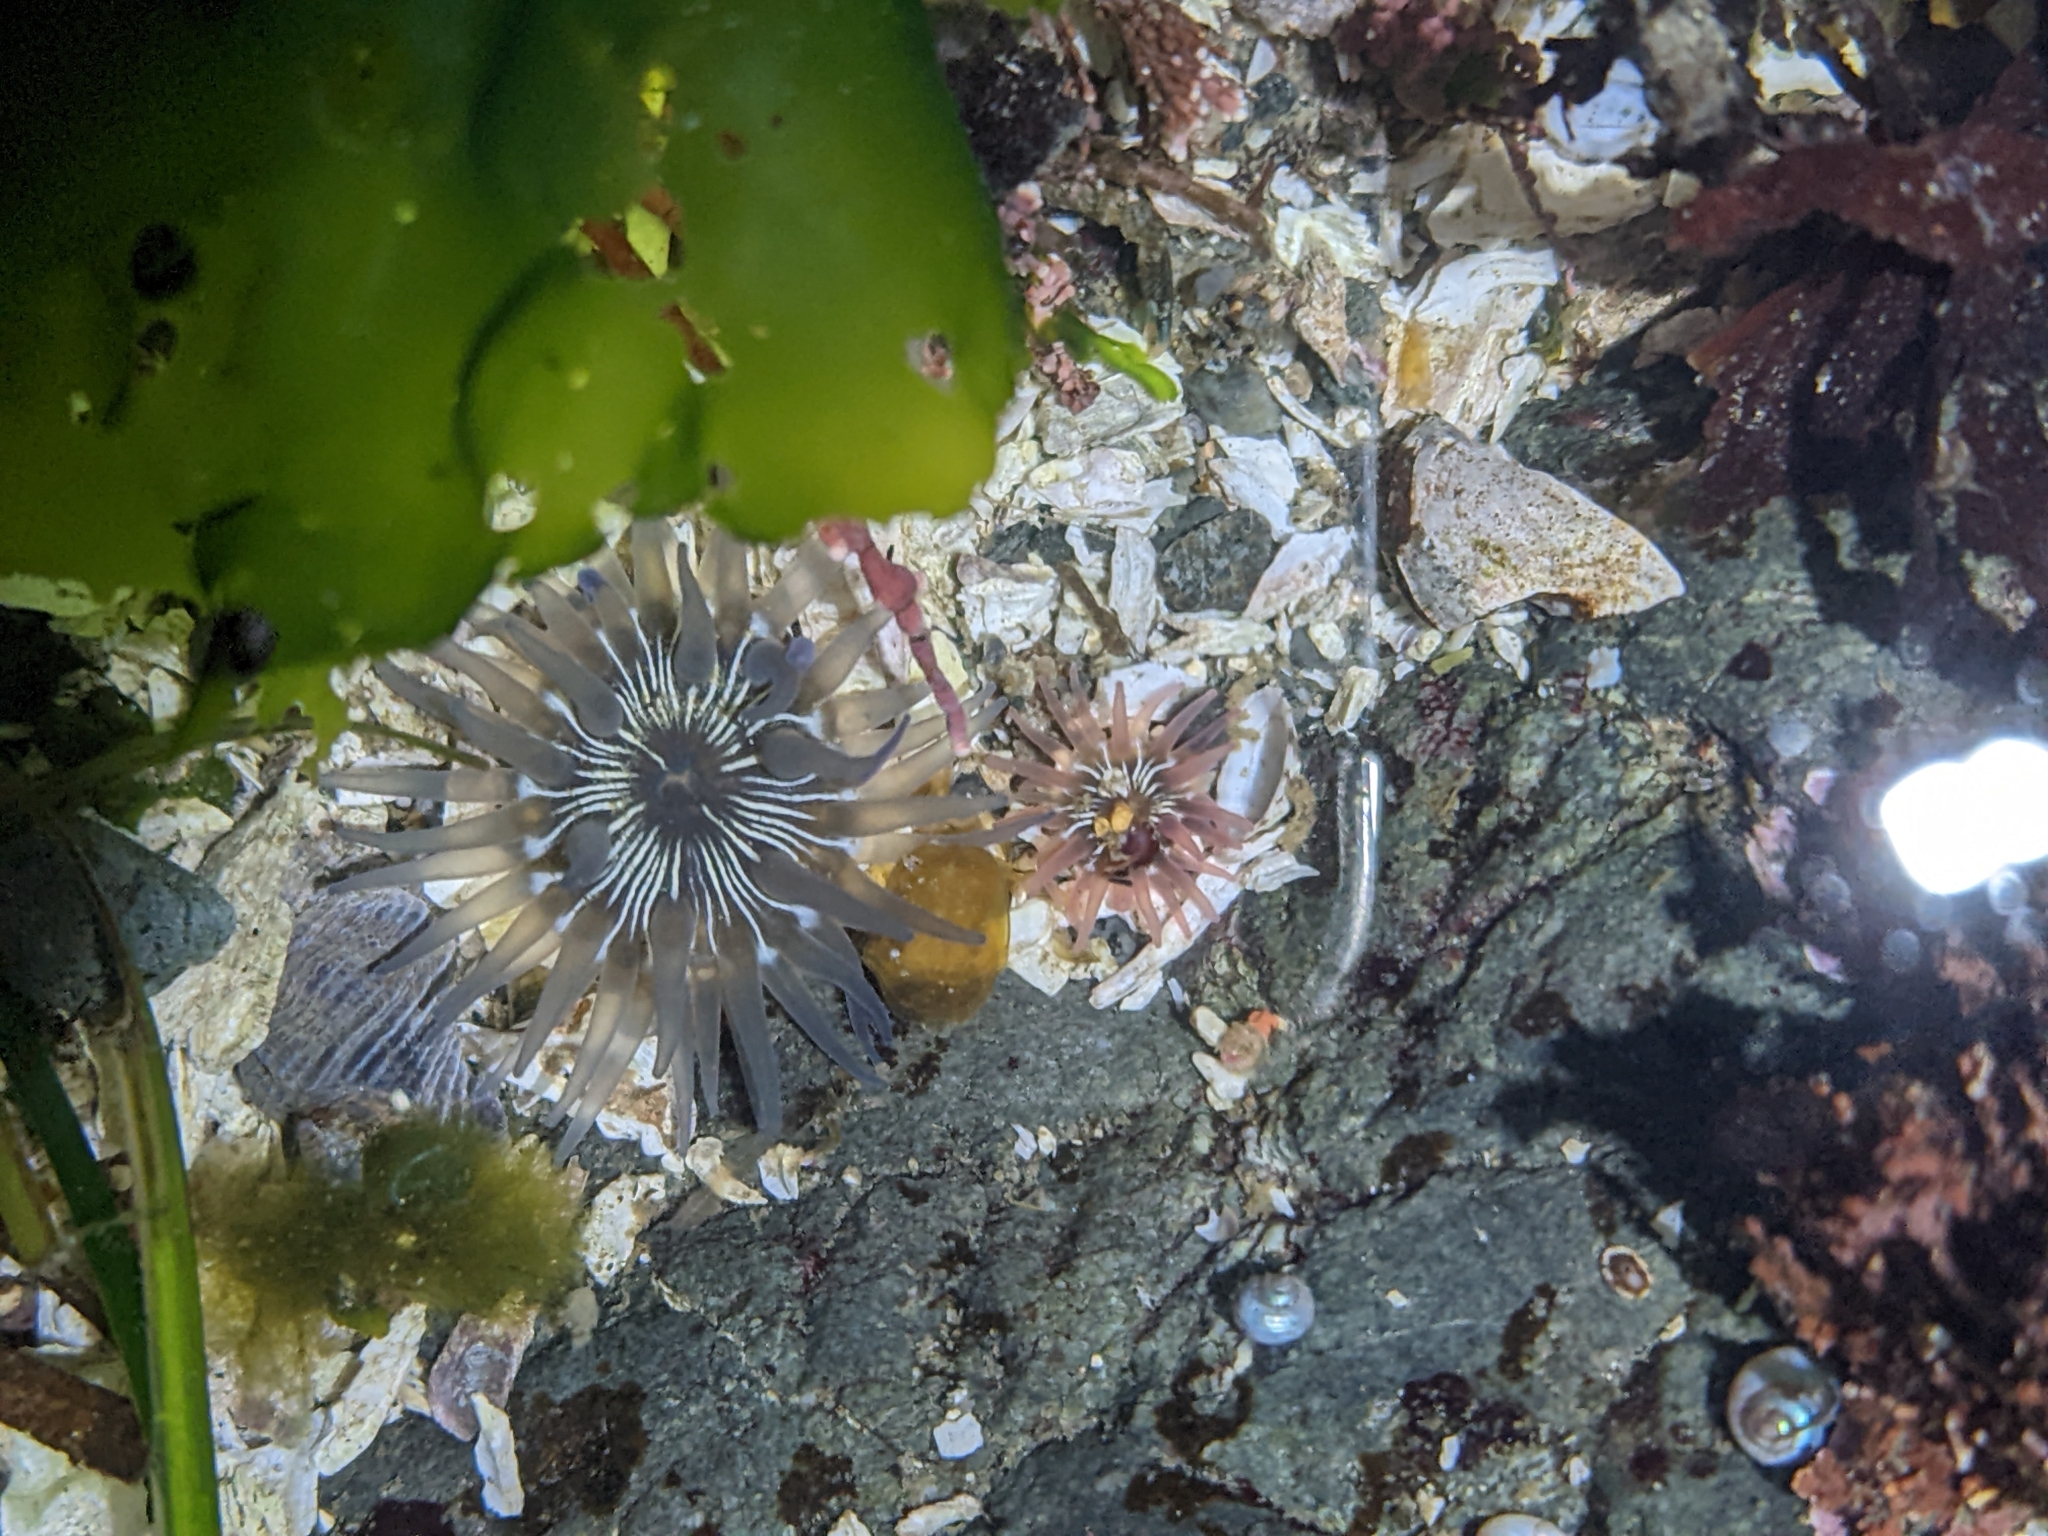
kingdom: Animalia
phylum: Cnidaria
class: Anthozoa
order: Actiniaria
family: Actiniidae
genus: Aulactinia
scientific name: Aulactinia incubans
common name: Incubating anemone
